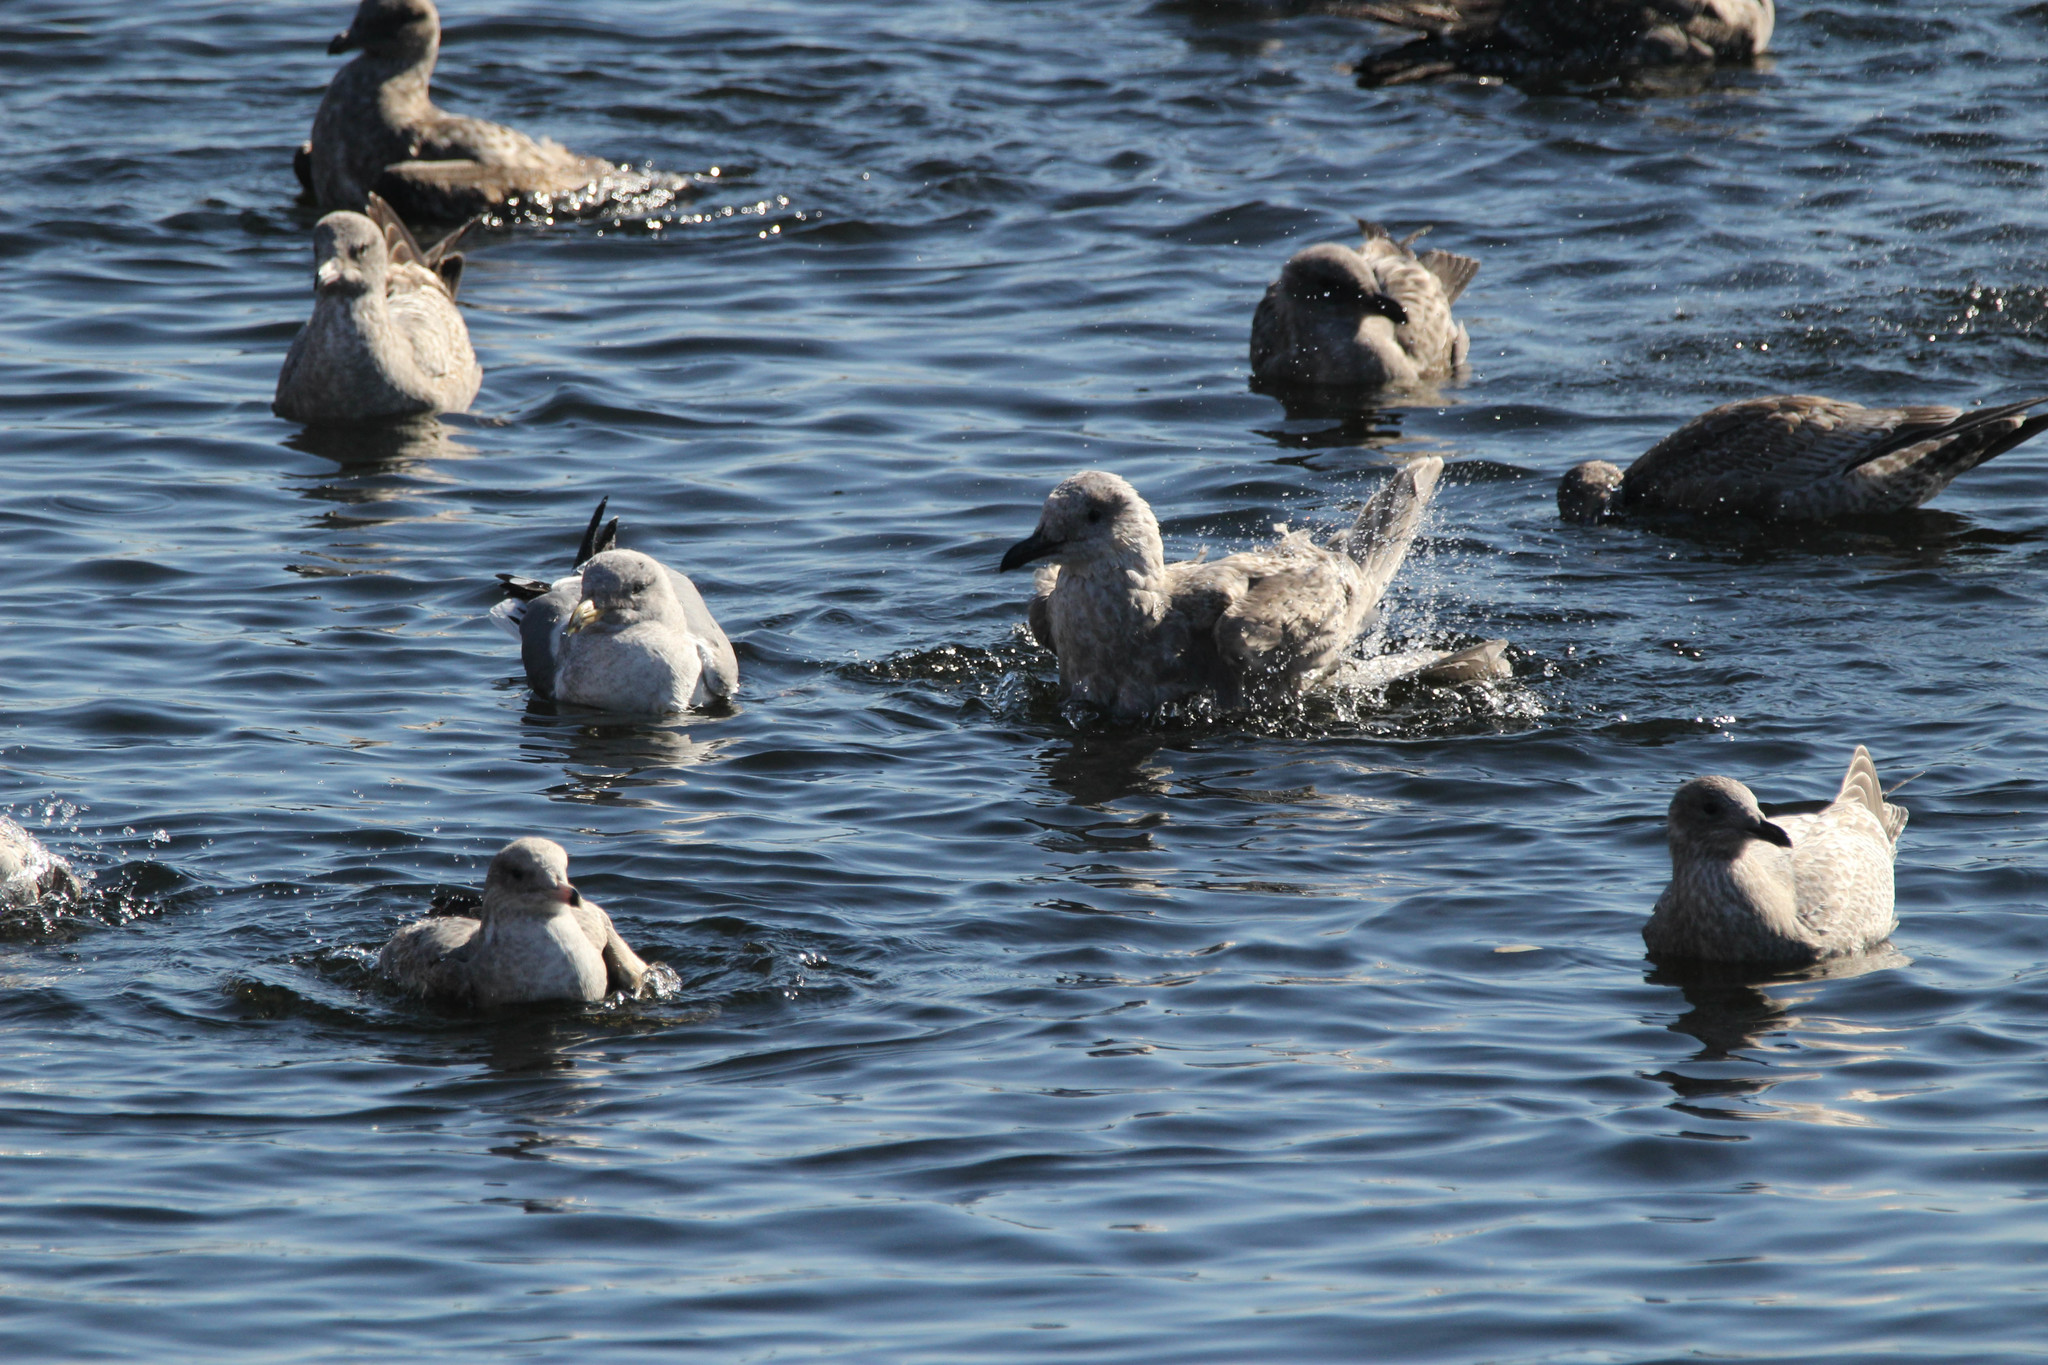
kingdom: Animalia
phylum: Chordata
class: Aves
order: Charadriiformes
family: Laridae
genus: Larus
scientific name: Larus argentatus
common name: Herring gull
